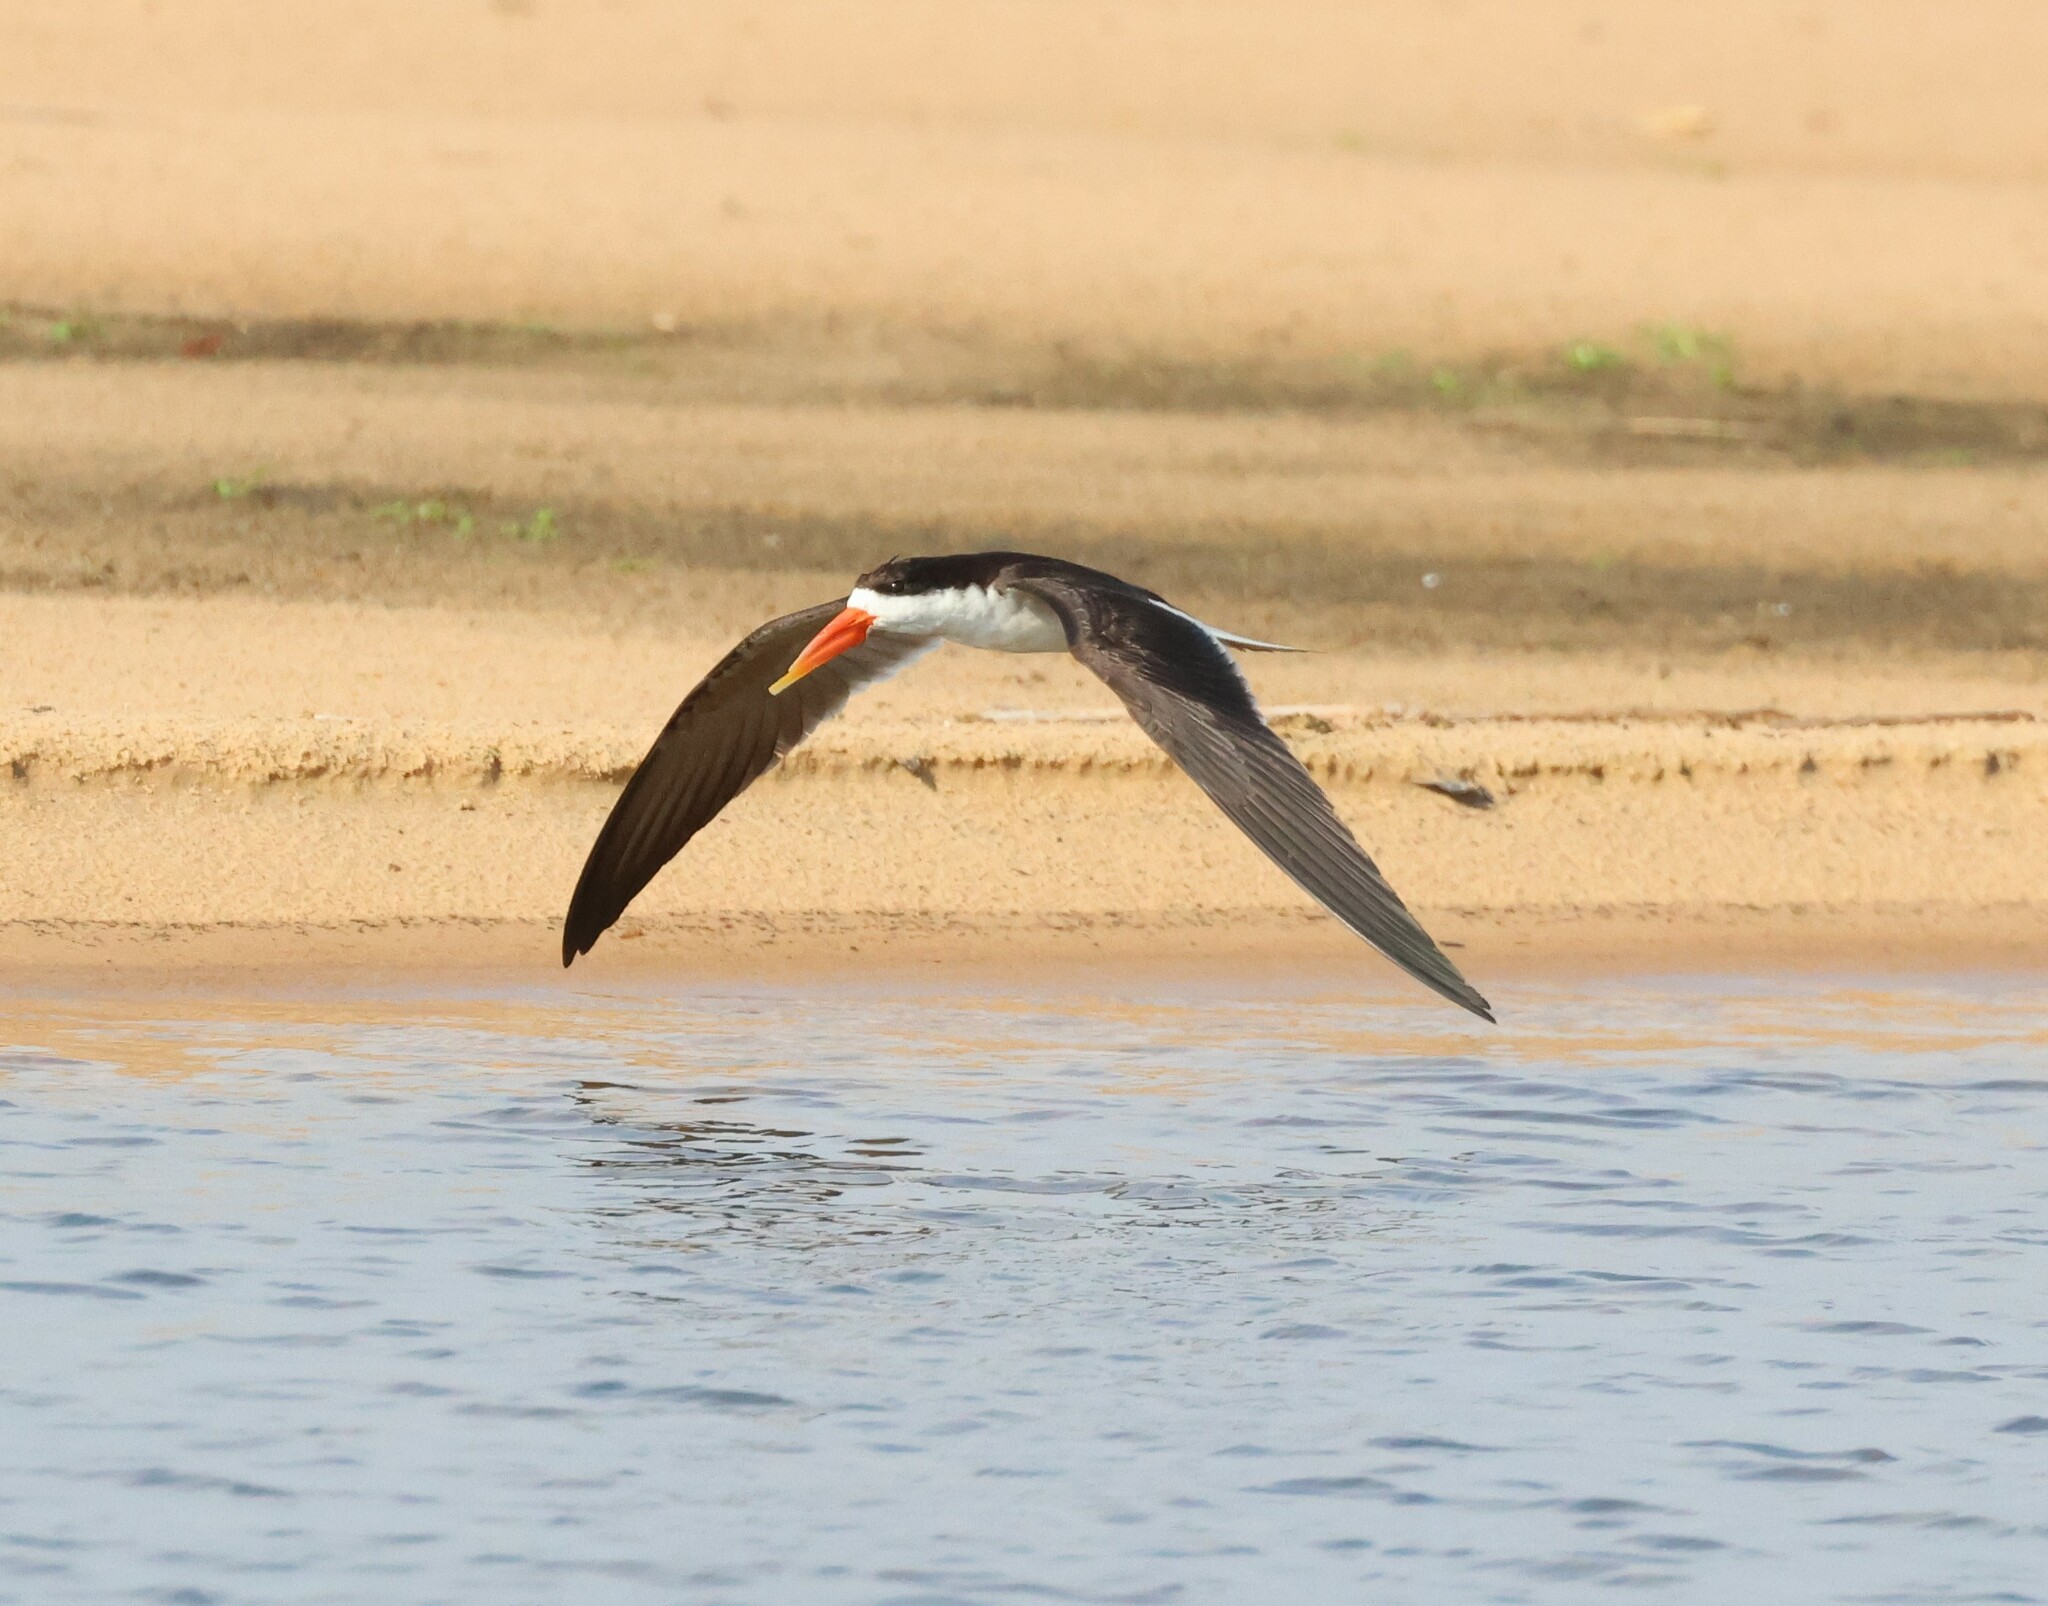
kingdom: Animalia
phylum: Chordata
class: Aves
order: Charadriiformes
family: Laridae
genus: Rynchops
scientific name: Rynchops flavirostris
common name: African skimmer
